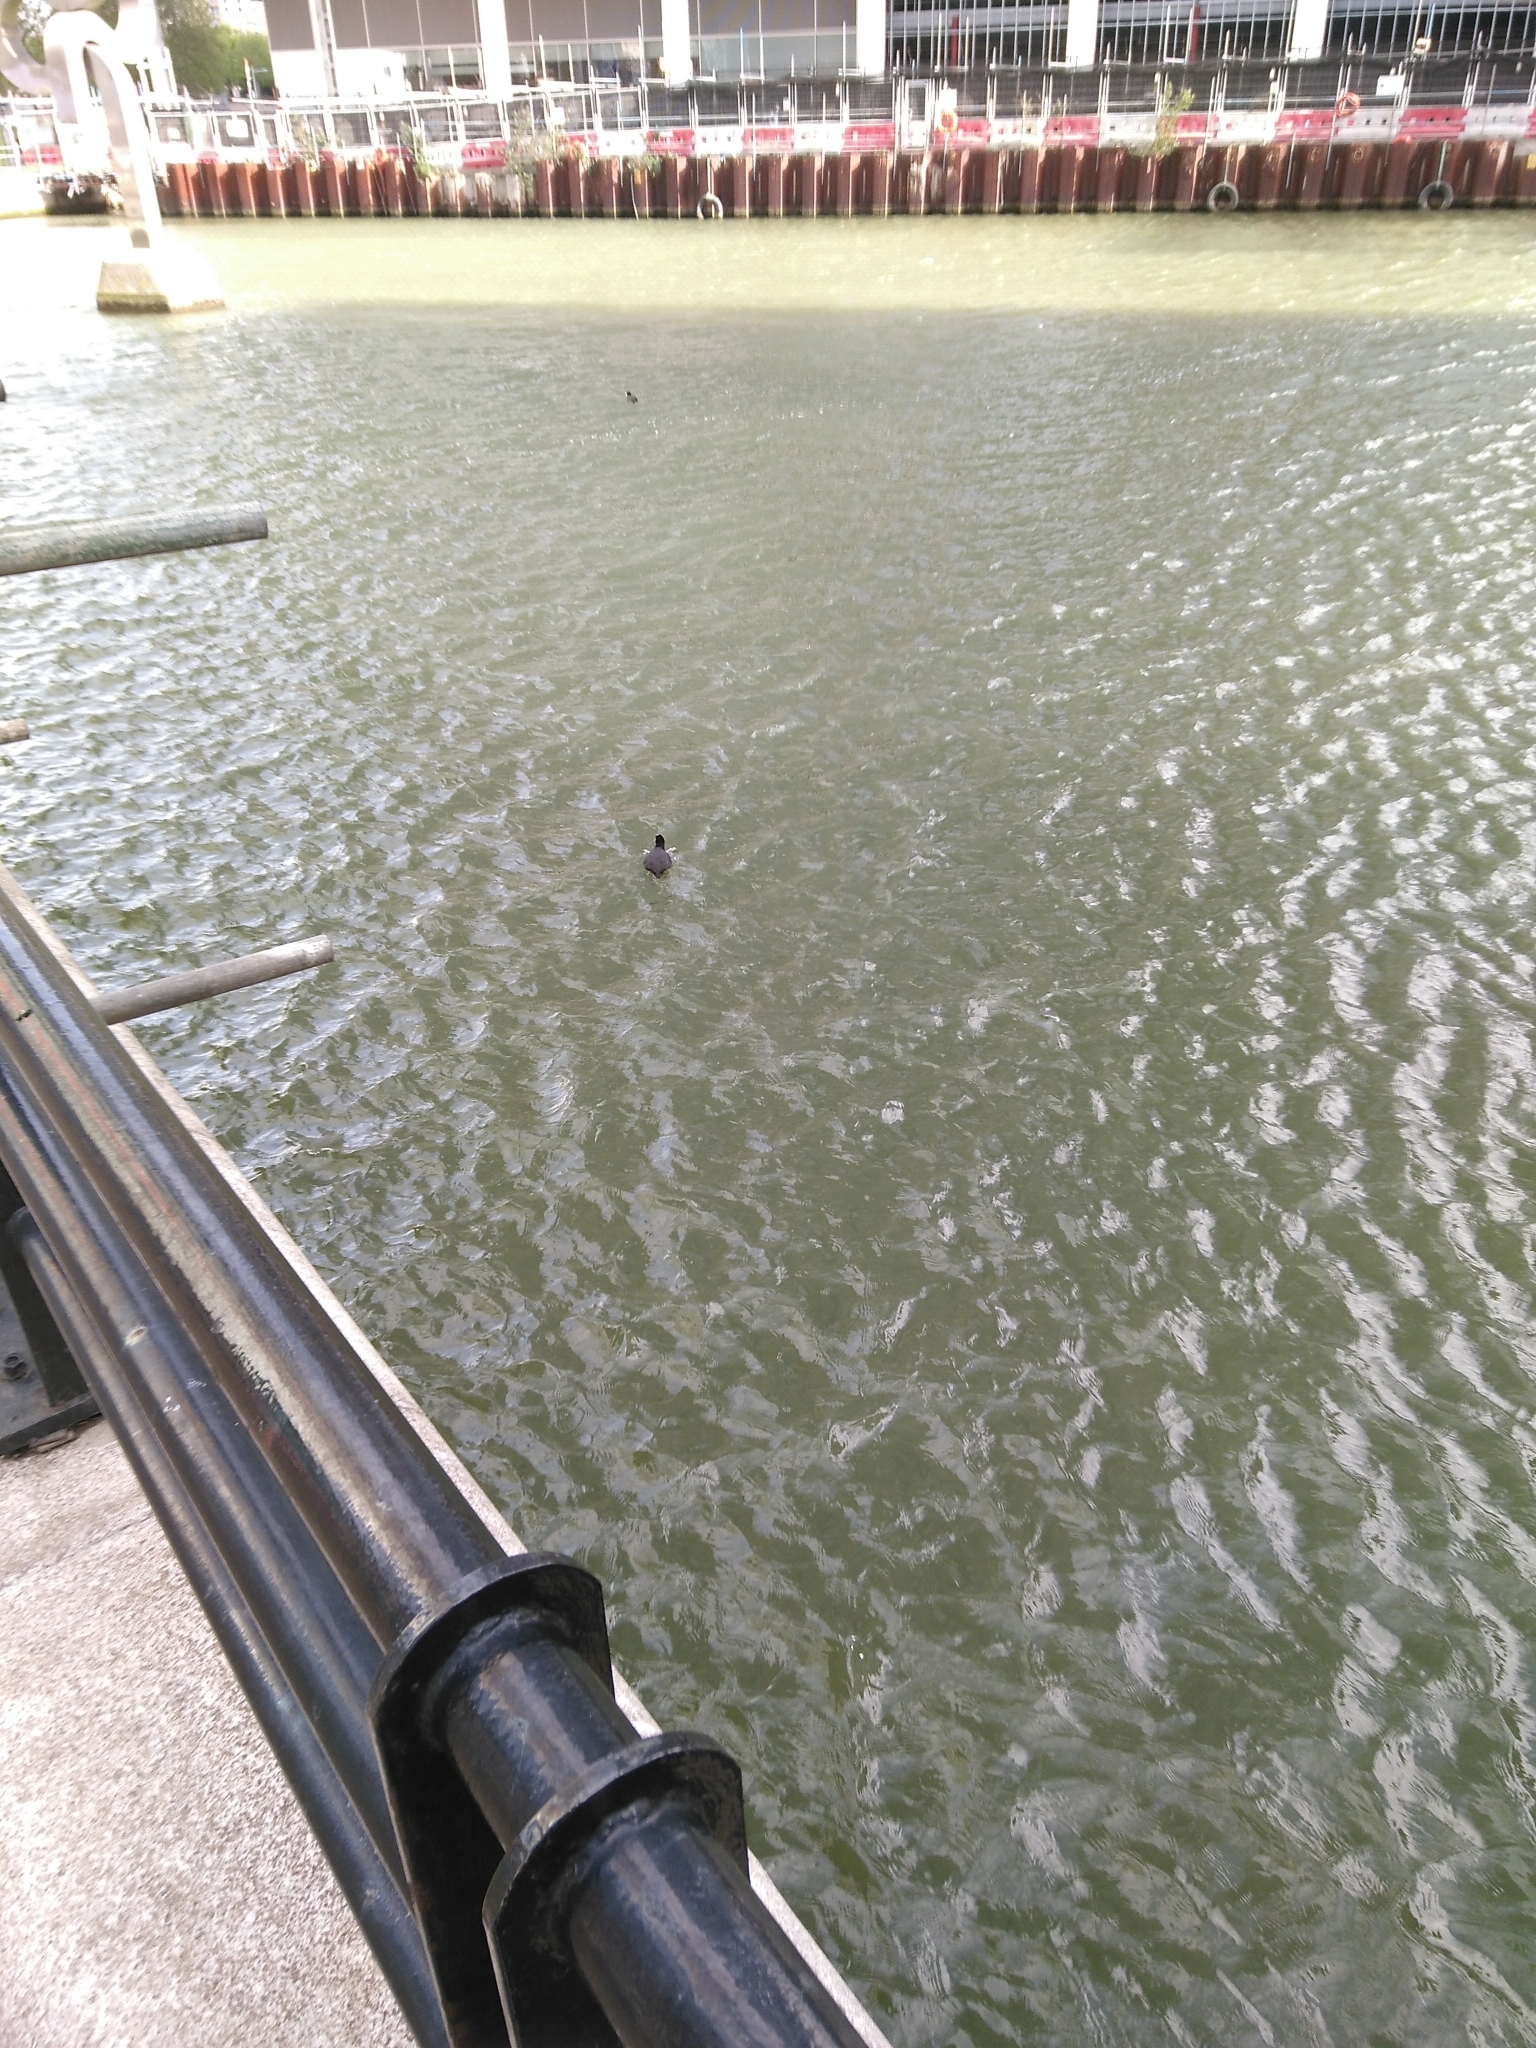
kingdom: Animalia
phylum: Chordata
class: Aves
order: Gruiformes
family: Rallidae
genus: Fulica
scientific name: Fulica atra
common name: Eurasian coot
